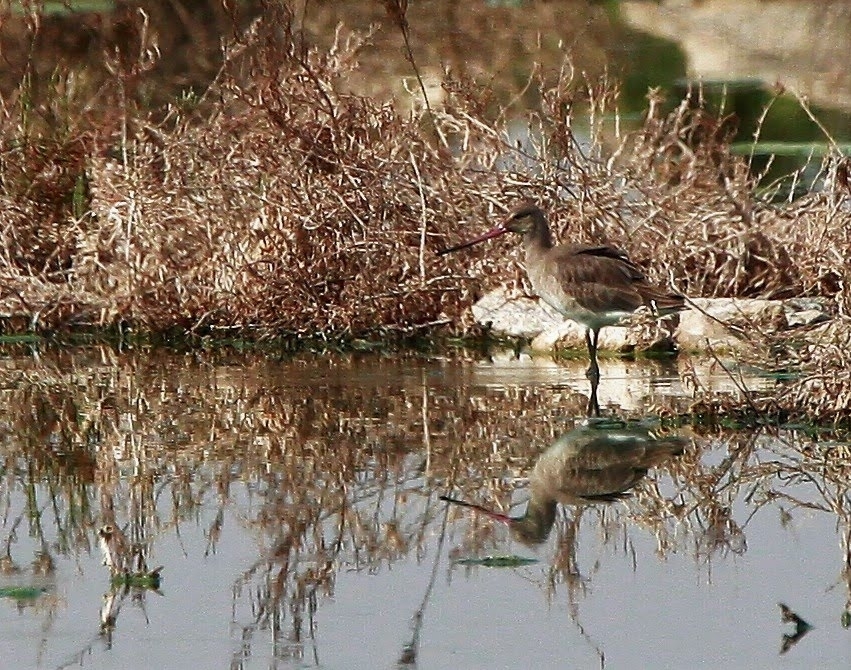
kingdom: Animalia
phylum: Chordata
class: Aves
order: Charadriiformes
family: Scolopacidae
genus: Limosa
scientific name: Limosa limosa
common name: Black-tailed godwit
